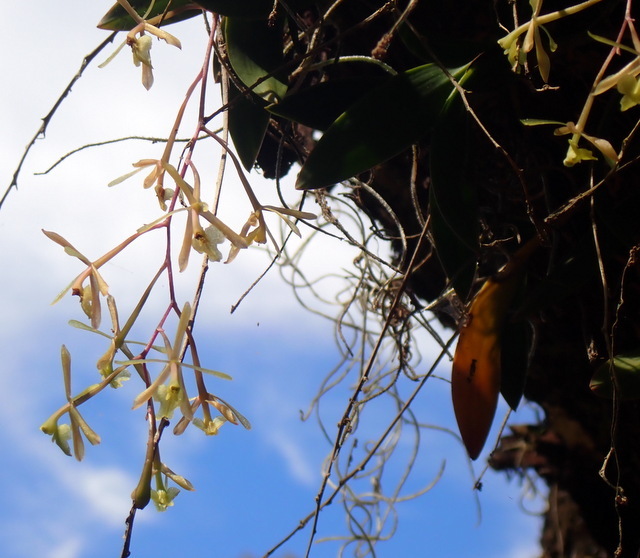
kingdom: Plantae
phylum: Tracheophyta
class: Liliopsida
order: Asparagales
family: Orchidaceae
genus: Epidendrum
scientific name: Epidendrum conopseum
